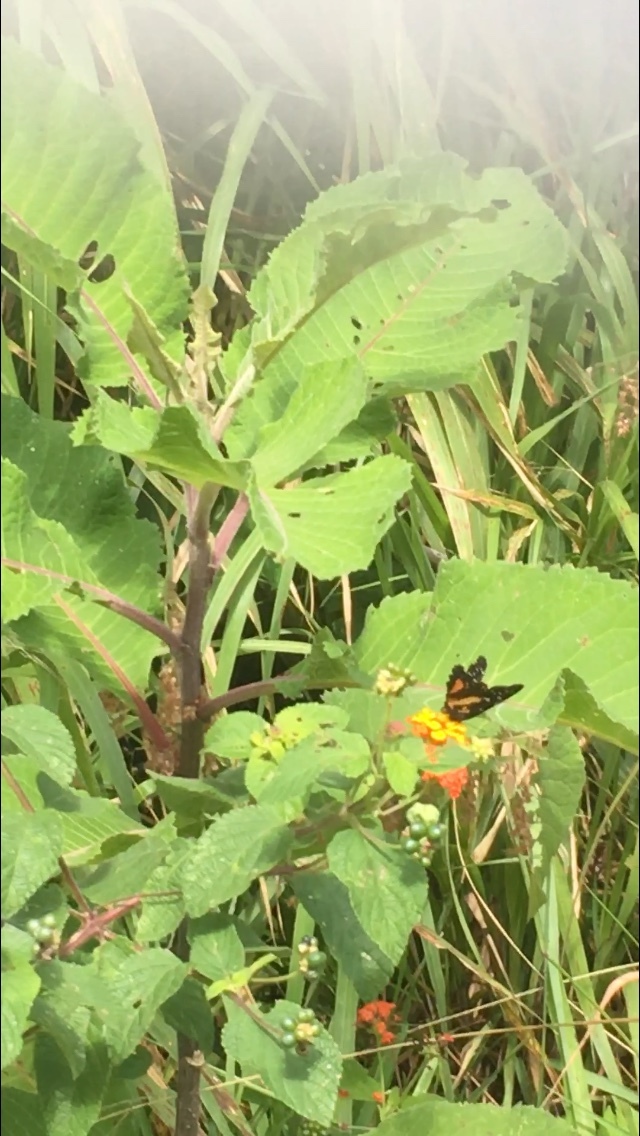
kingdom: Animalia
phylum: Arthropoda
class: Insecta
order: Lepidoptera
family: Nymphalidae
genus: Chlosyne
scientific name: Chlosyne lacinia
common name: Bordered patch
